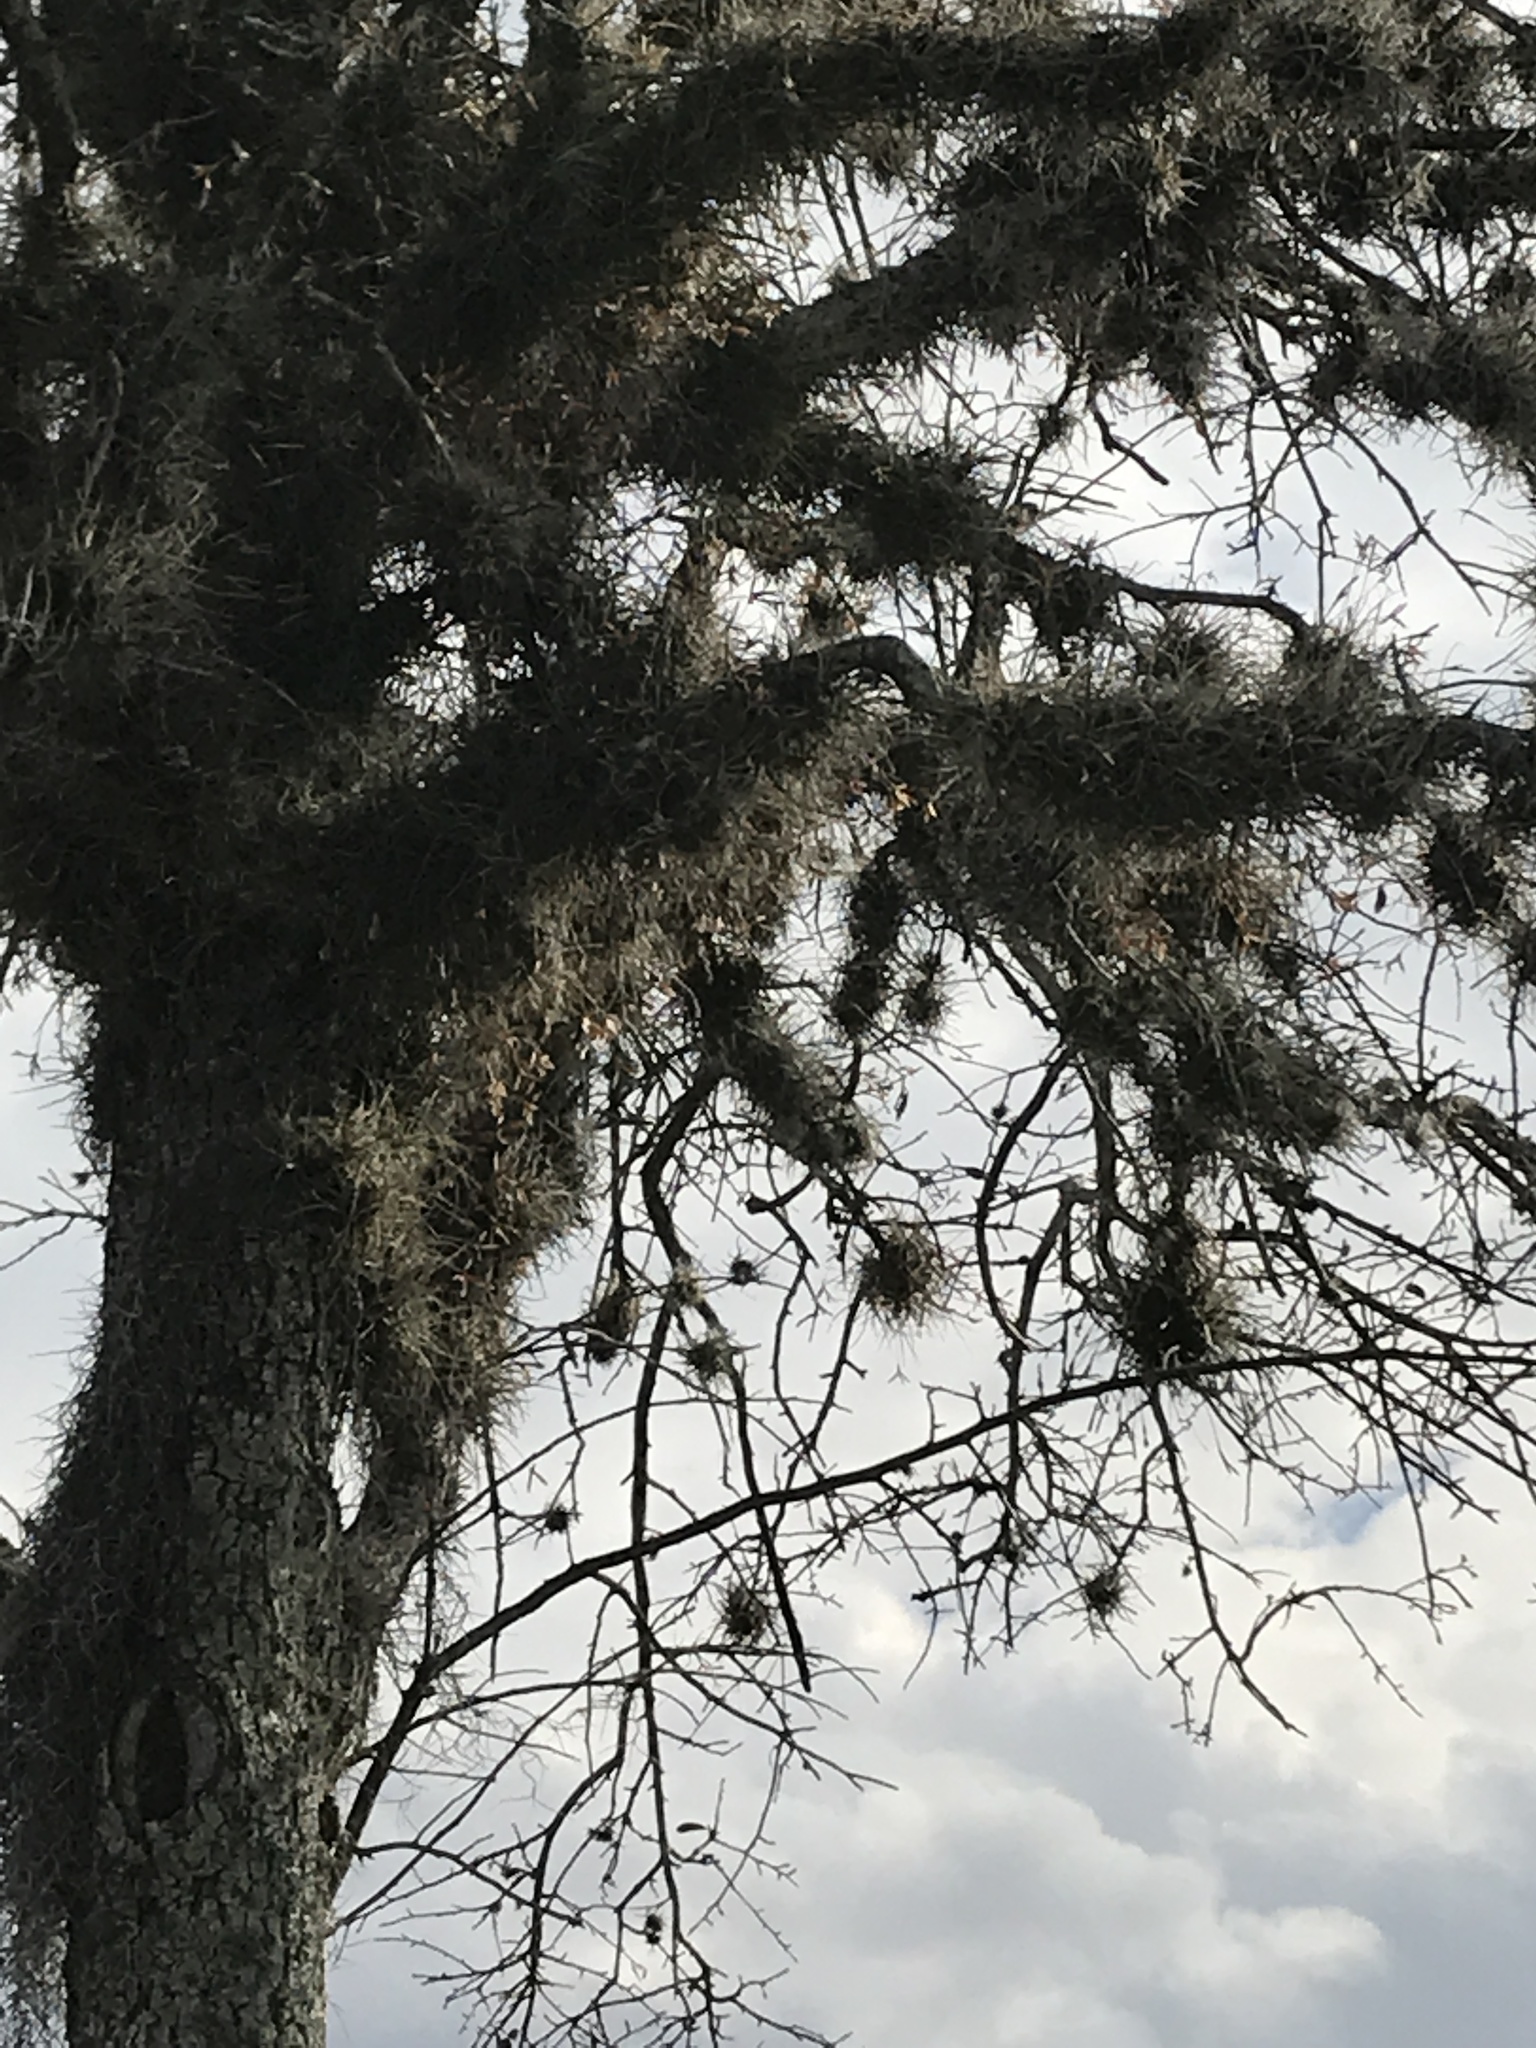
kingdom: Plantae
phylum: Tracheophyta
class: Liliopsida
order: Poales
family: Bromeliaceae
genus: Tillandsia
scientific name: Tillandsia recurvata
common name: Small ballmoss
